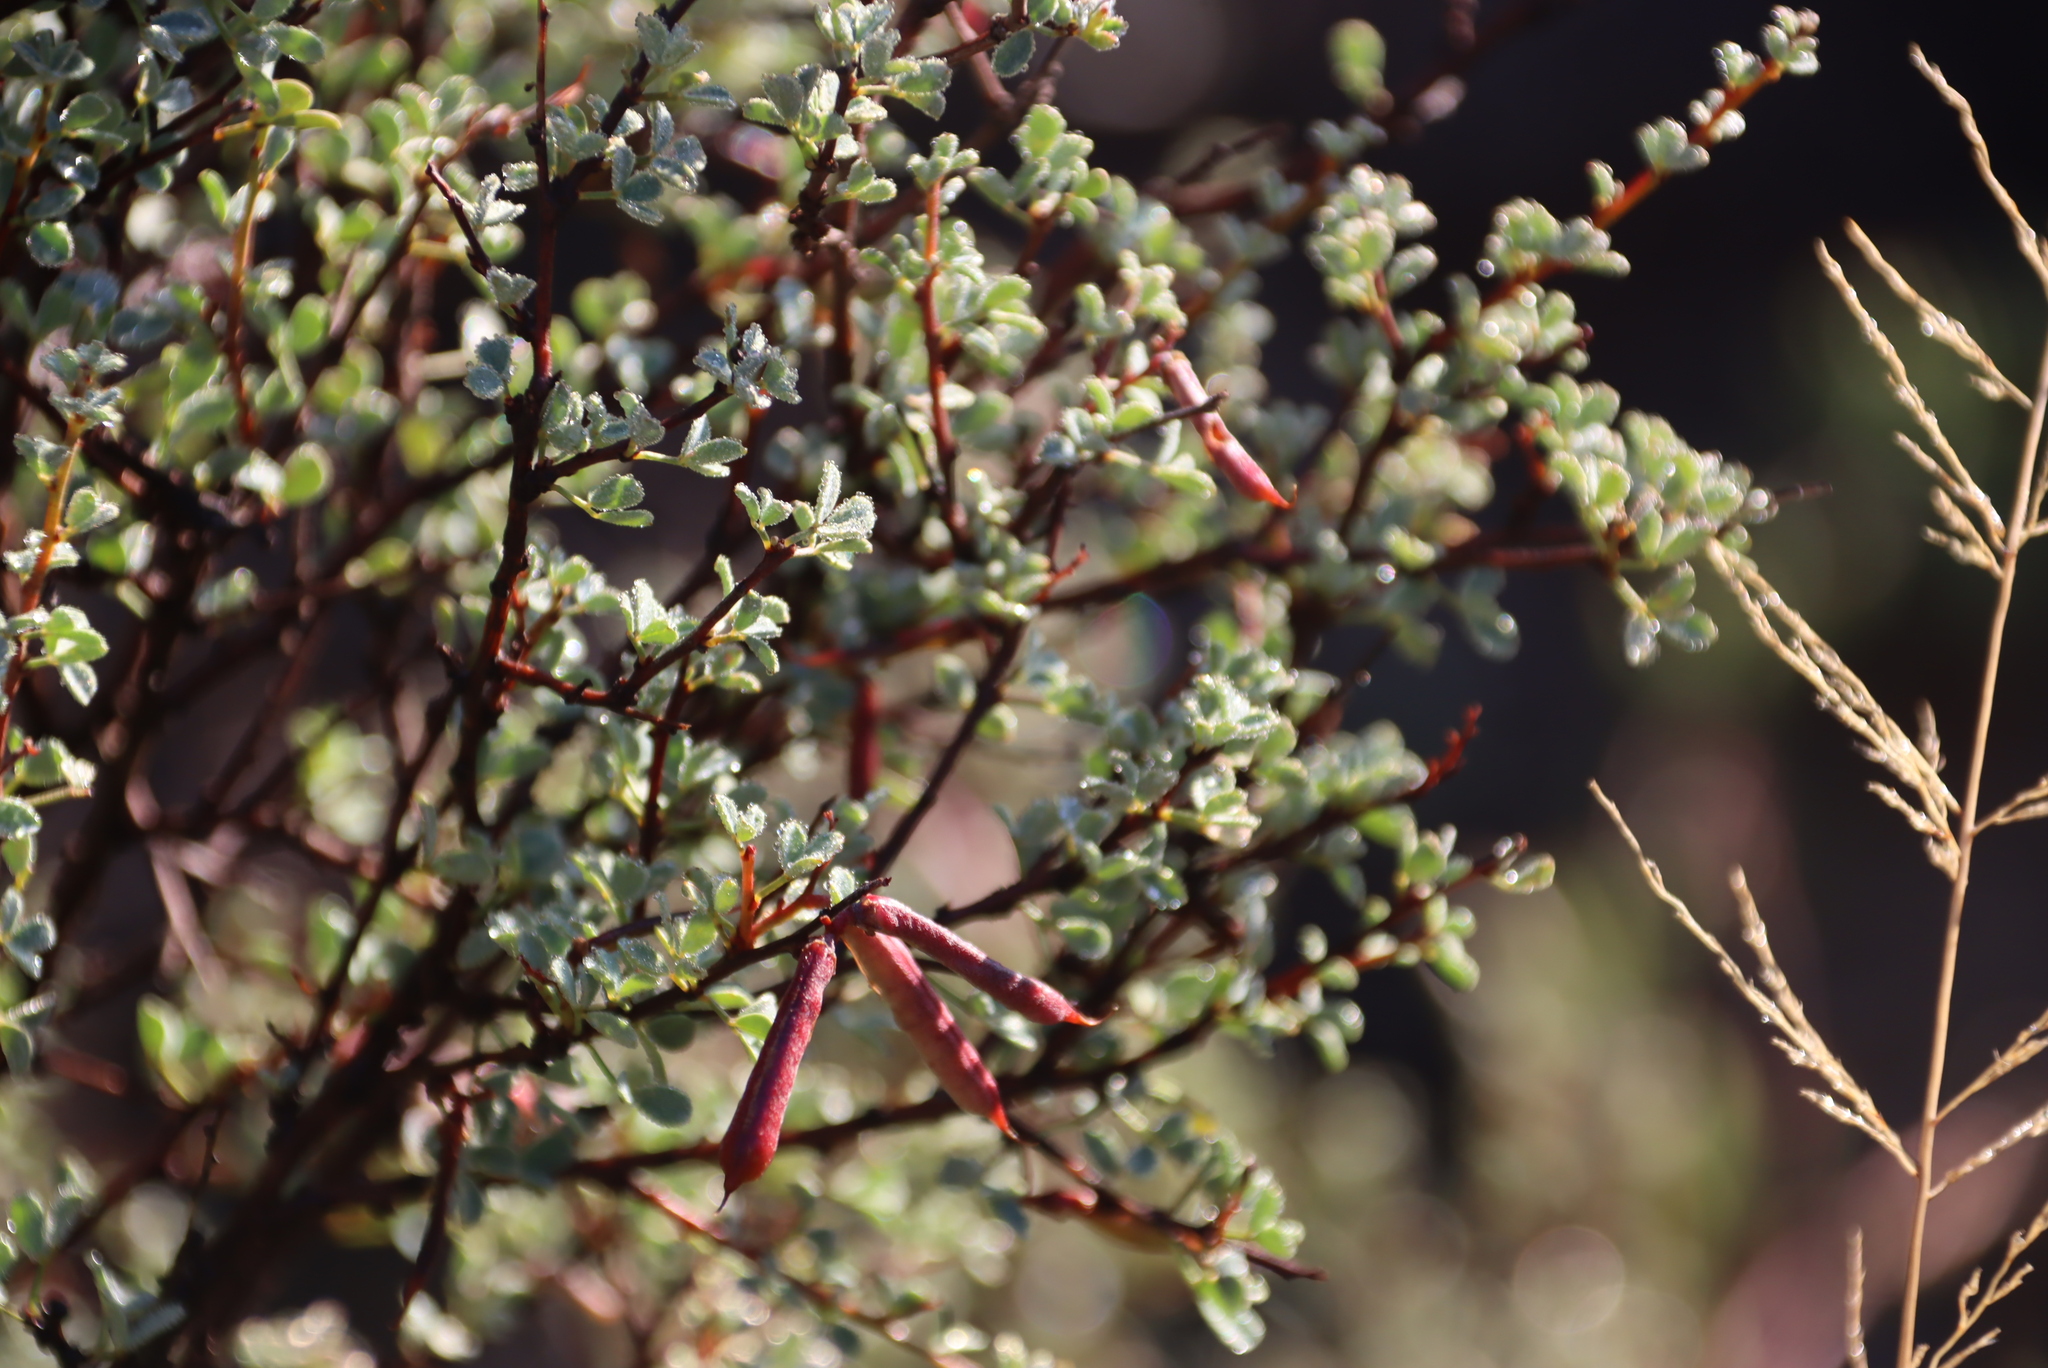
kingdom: Plantae
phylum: Tracheophyta
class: Magnoliopsida
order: Fabales
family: Fabaceae
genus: Indigofera
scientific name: Indigofera denudata
